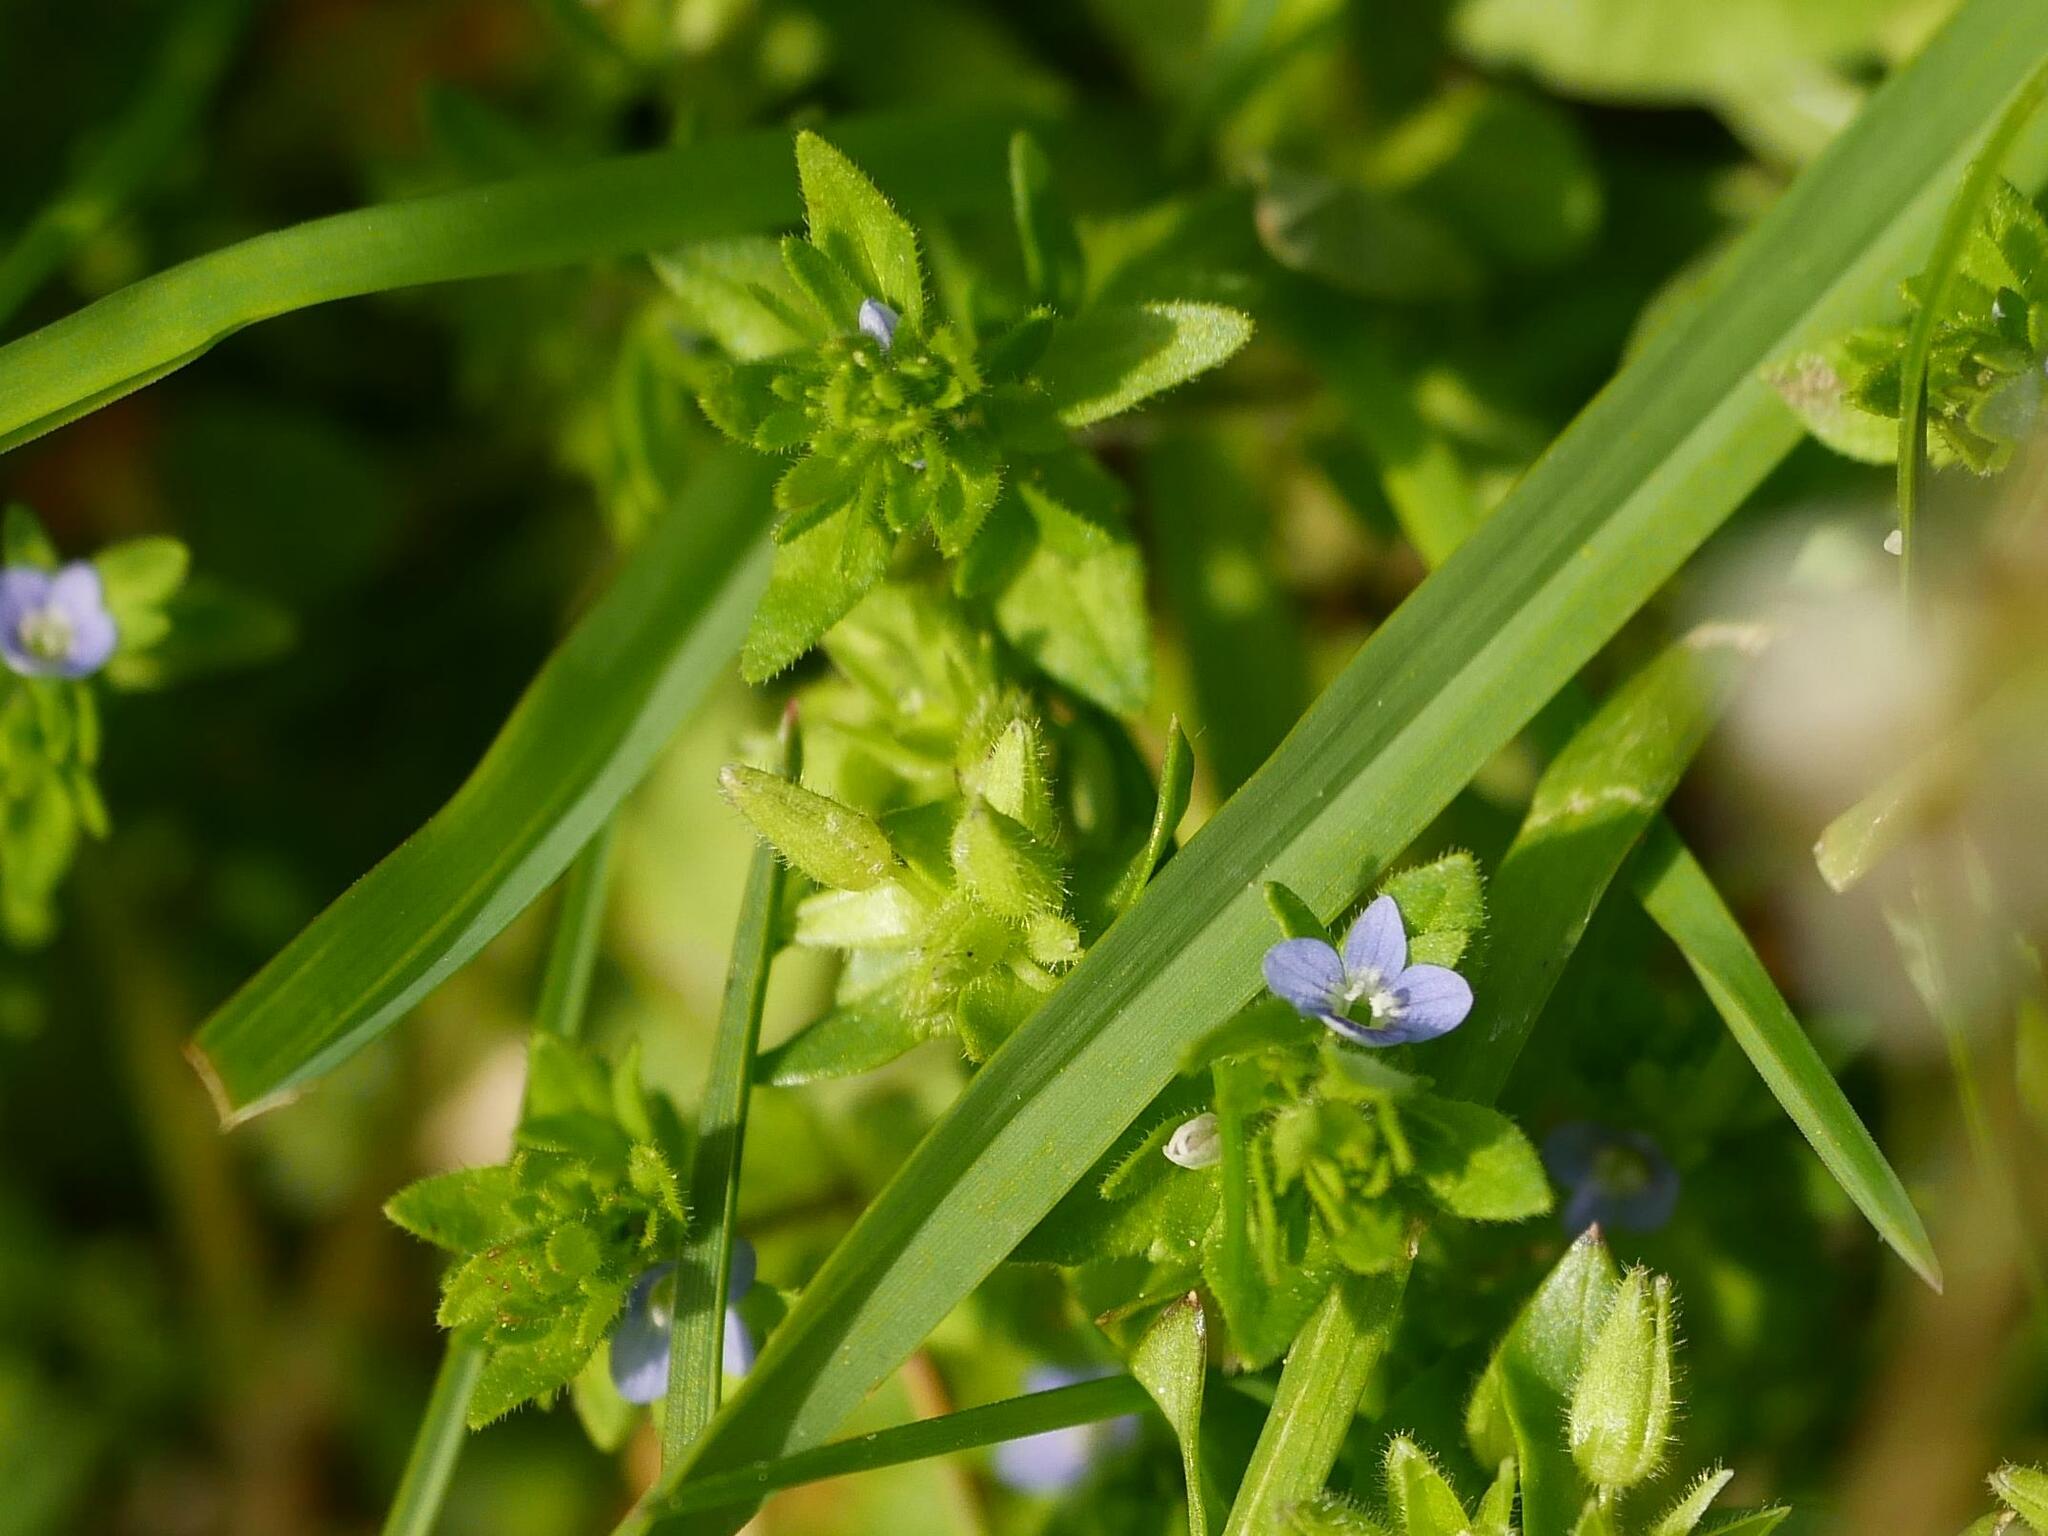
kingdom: Plantae
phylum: Tracheophyta
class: Magnoliopsida
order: Lamiales
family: Plantaginaceae
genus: Veronica
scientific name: Veronica arvensis
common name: Corn speedwell
